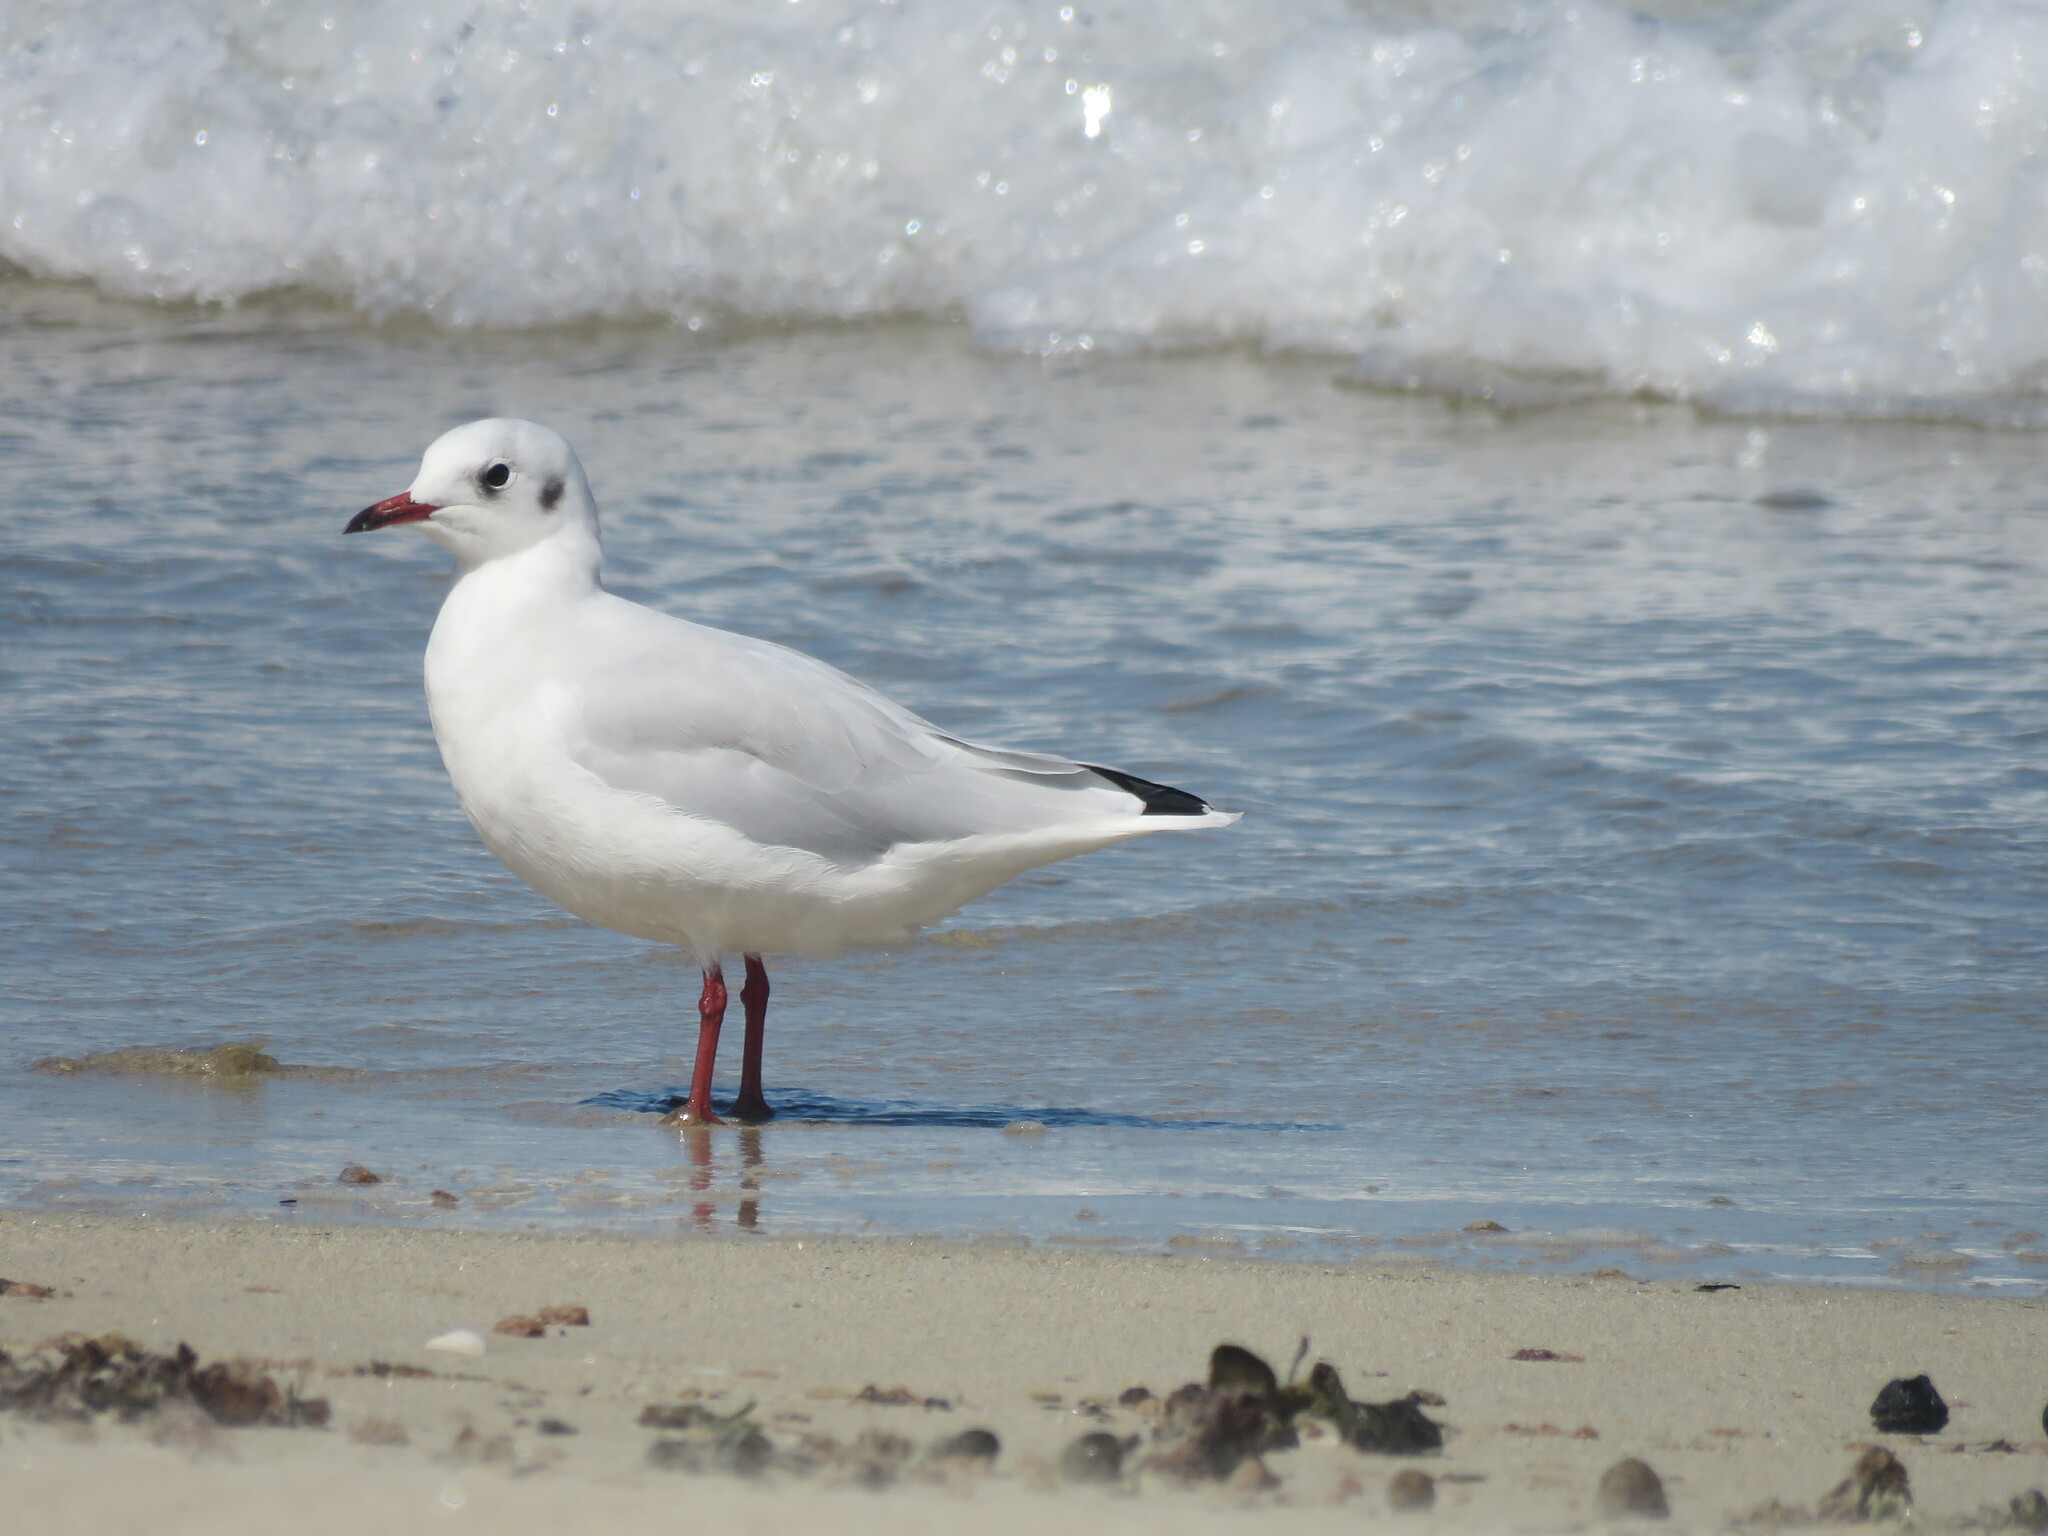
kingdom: Animalia
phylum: Chordata
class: Aves
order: Charadriiformes
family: Laridae
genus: Chroicocephalus
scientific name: Chroicocephalus ridibundus
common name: Black-headed gull
